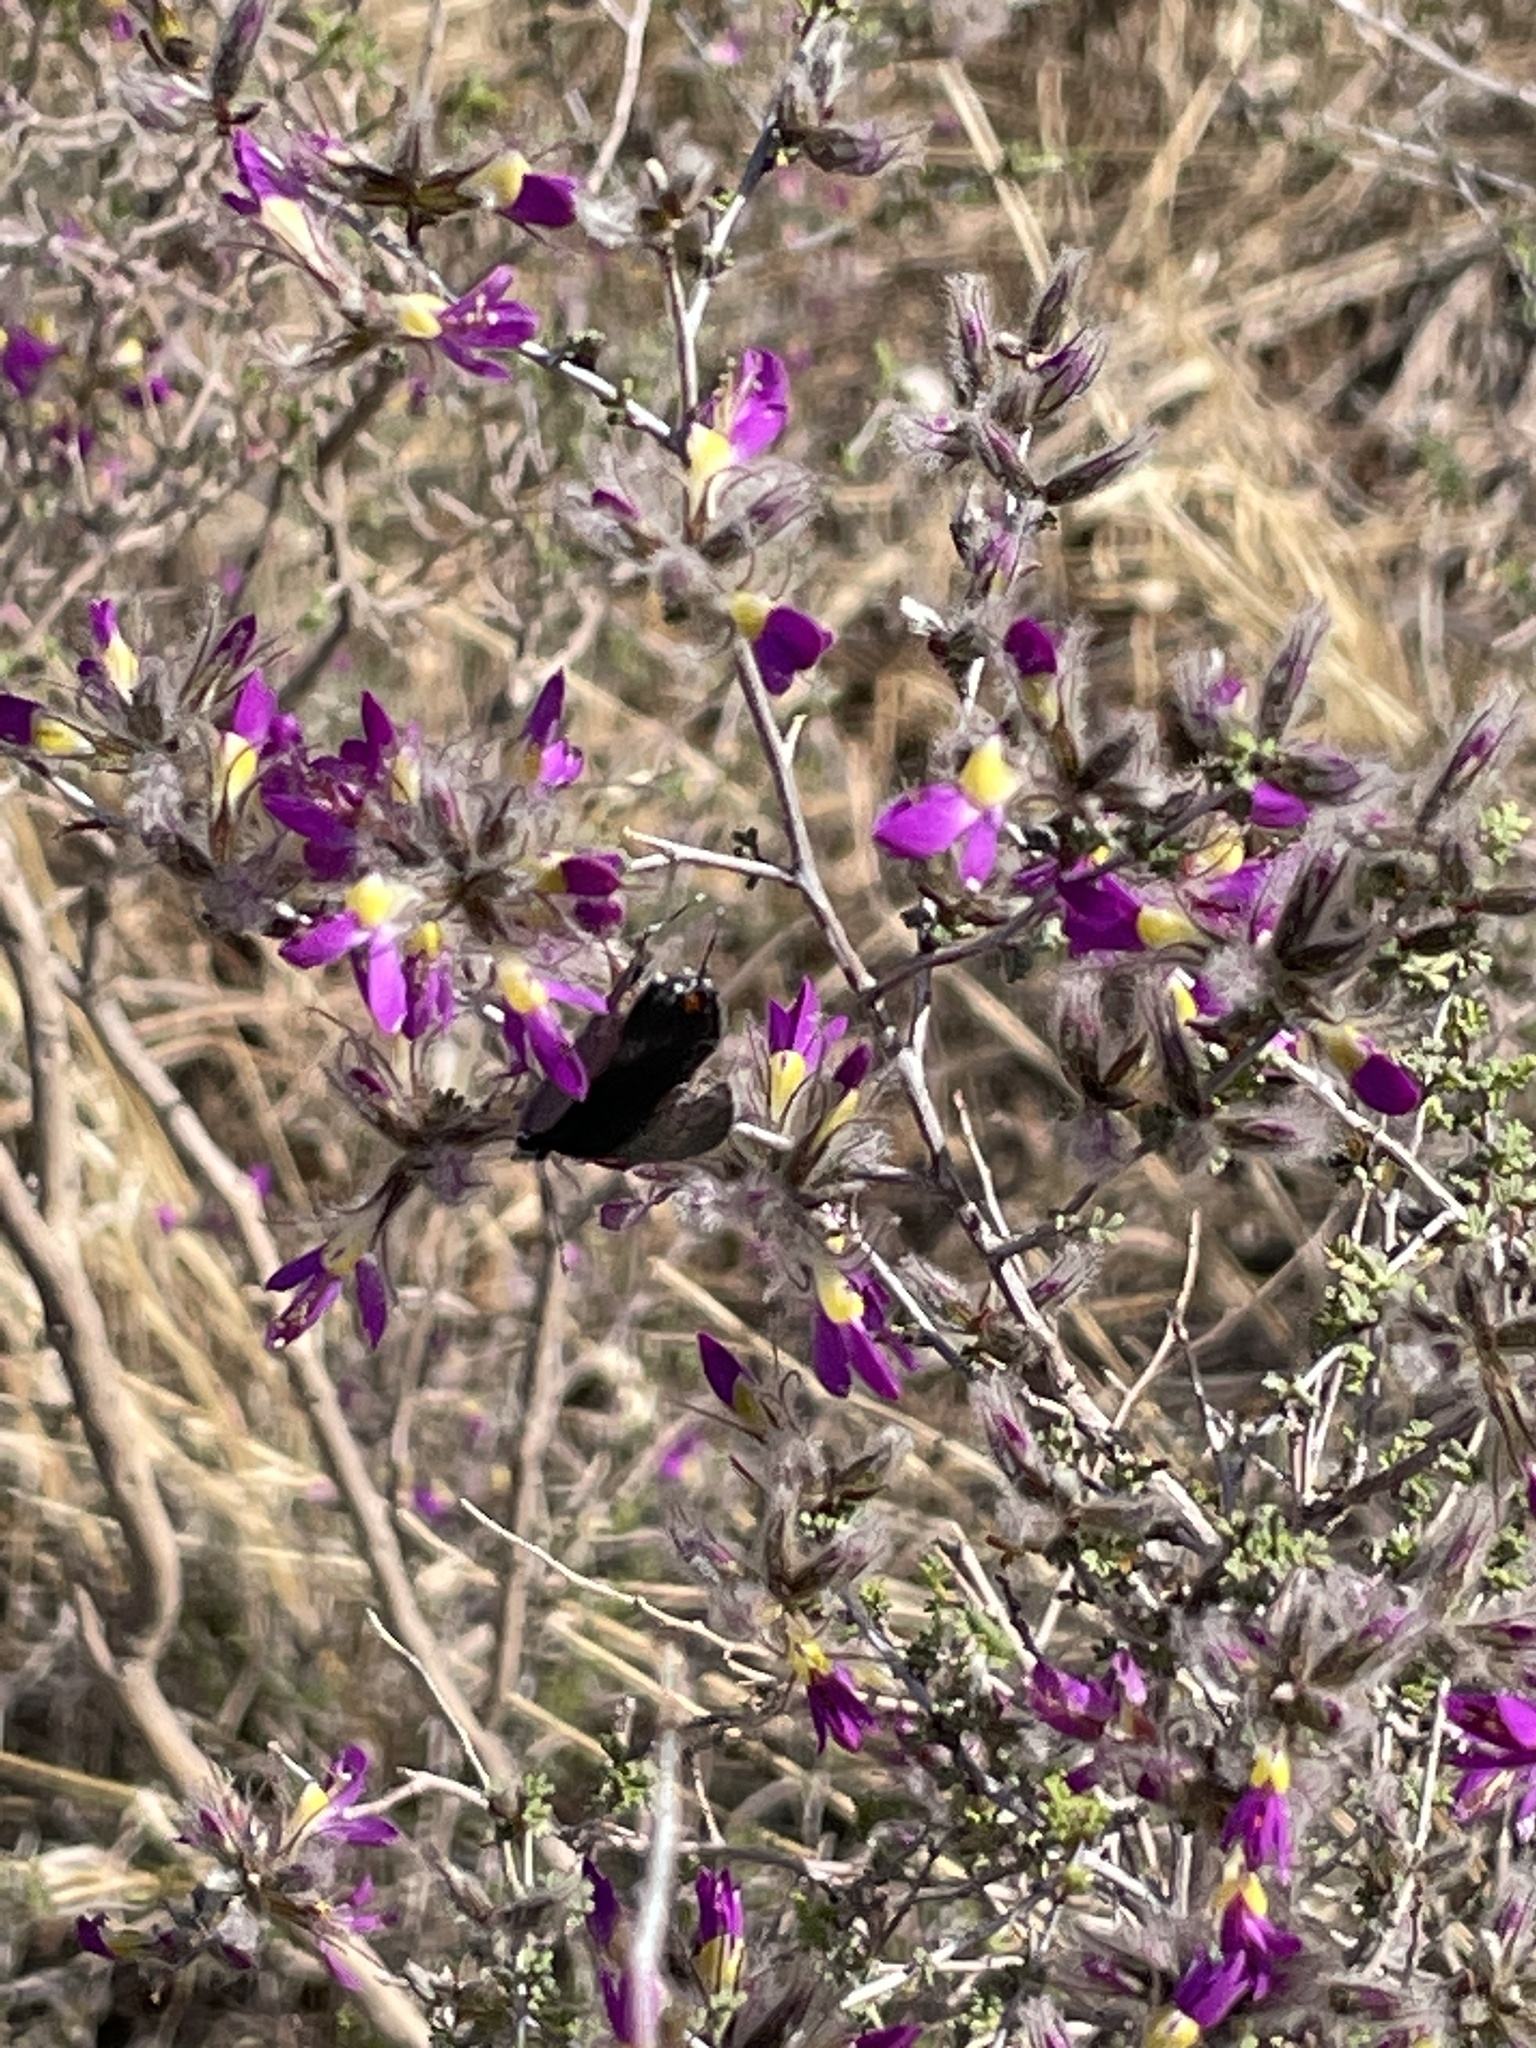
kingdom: Plantae
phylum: Tracheophyta
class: Magnoliopsida
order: Fabales
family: Fabaceae
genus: Dalea
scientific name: Dalea formosa
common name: Feather-plume dalea
